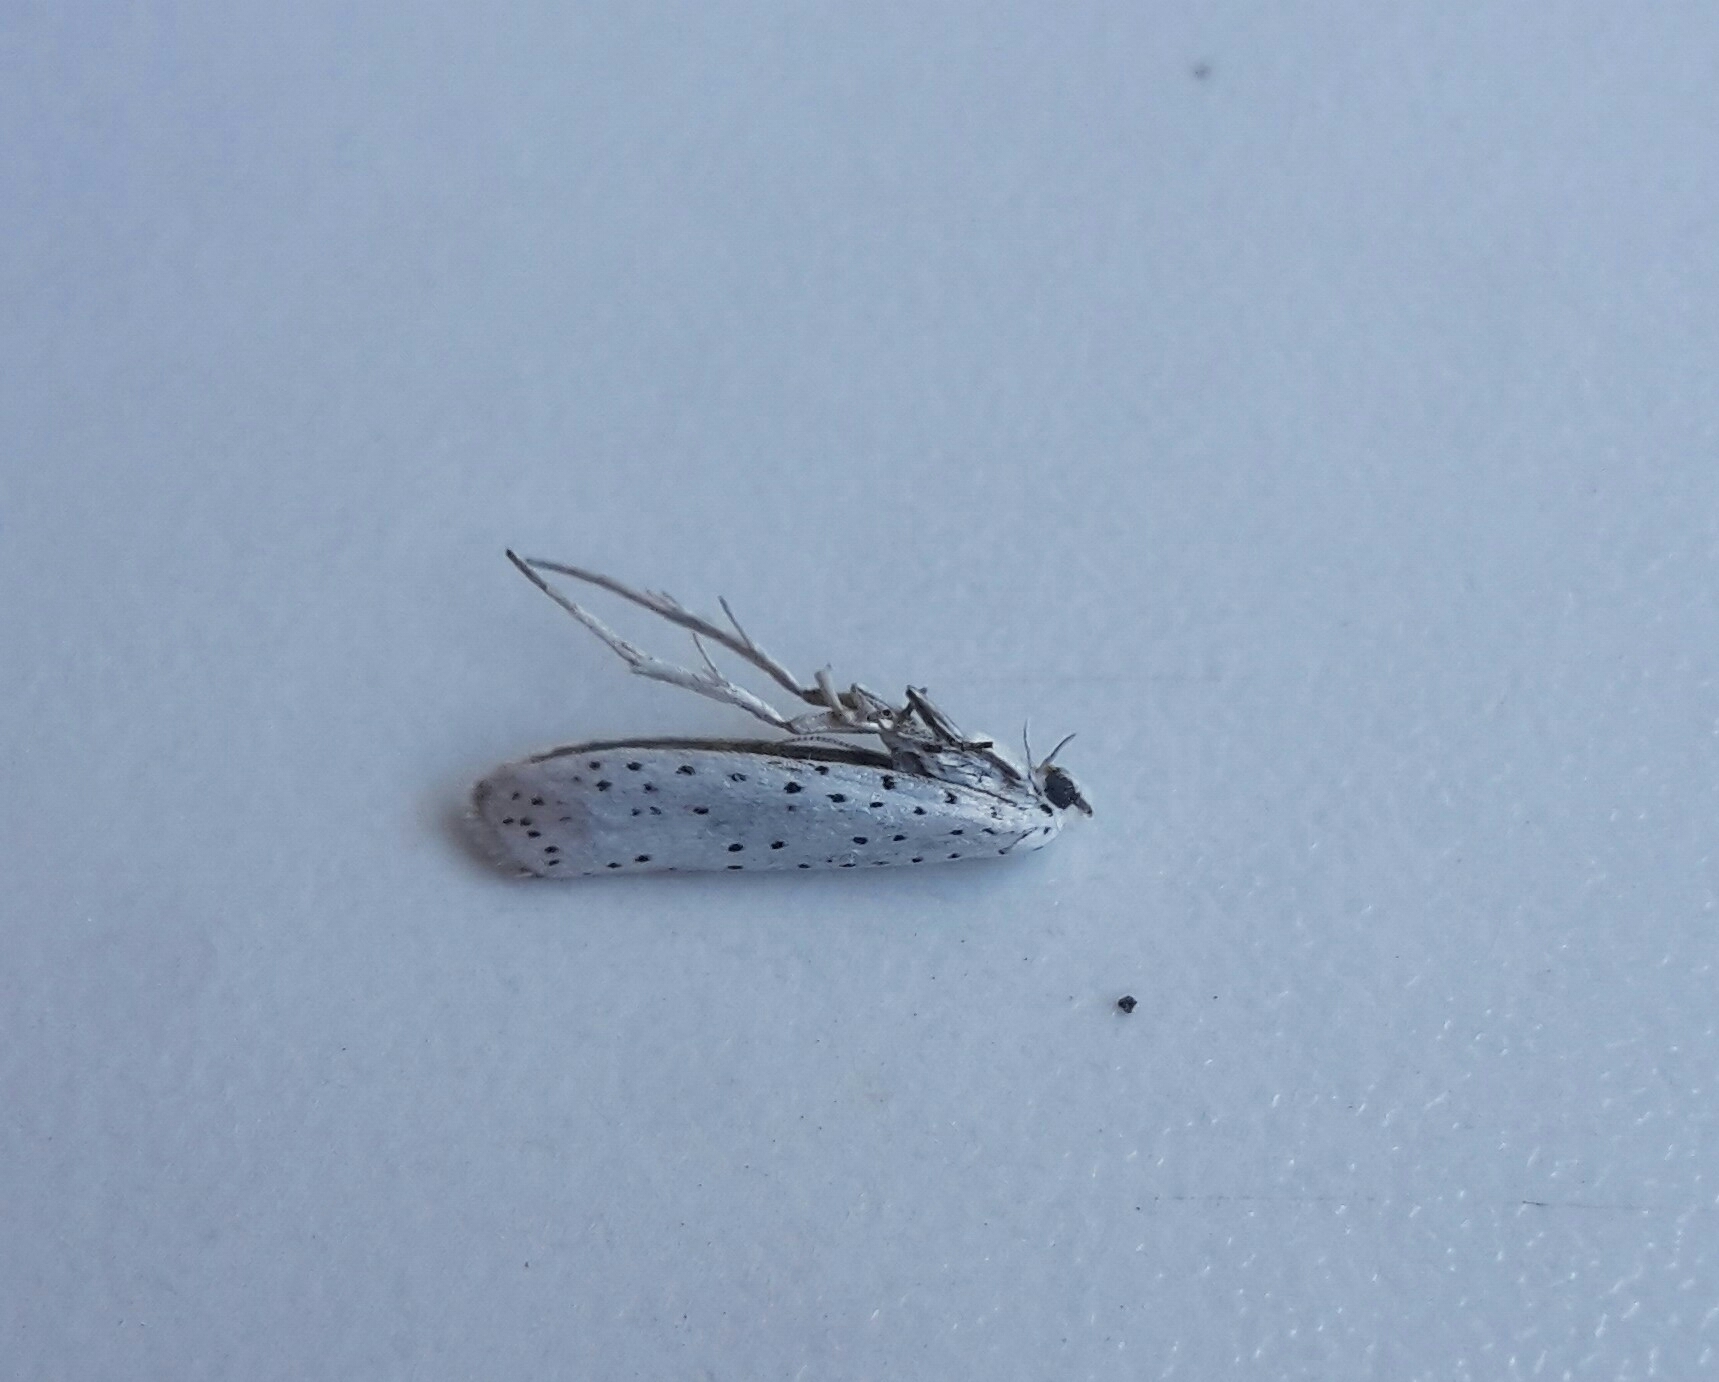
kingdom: Animalia
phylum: Arthropoda
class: Insecta
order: Lepidoptera
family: Yponomeutidae
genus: Yponomeuta
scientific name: Yponomeuta cagnagellus
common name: Spindle ermine
